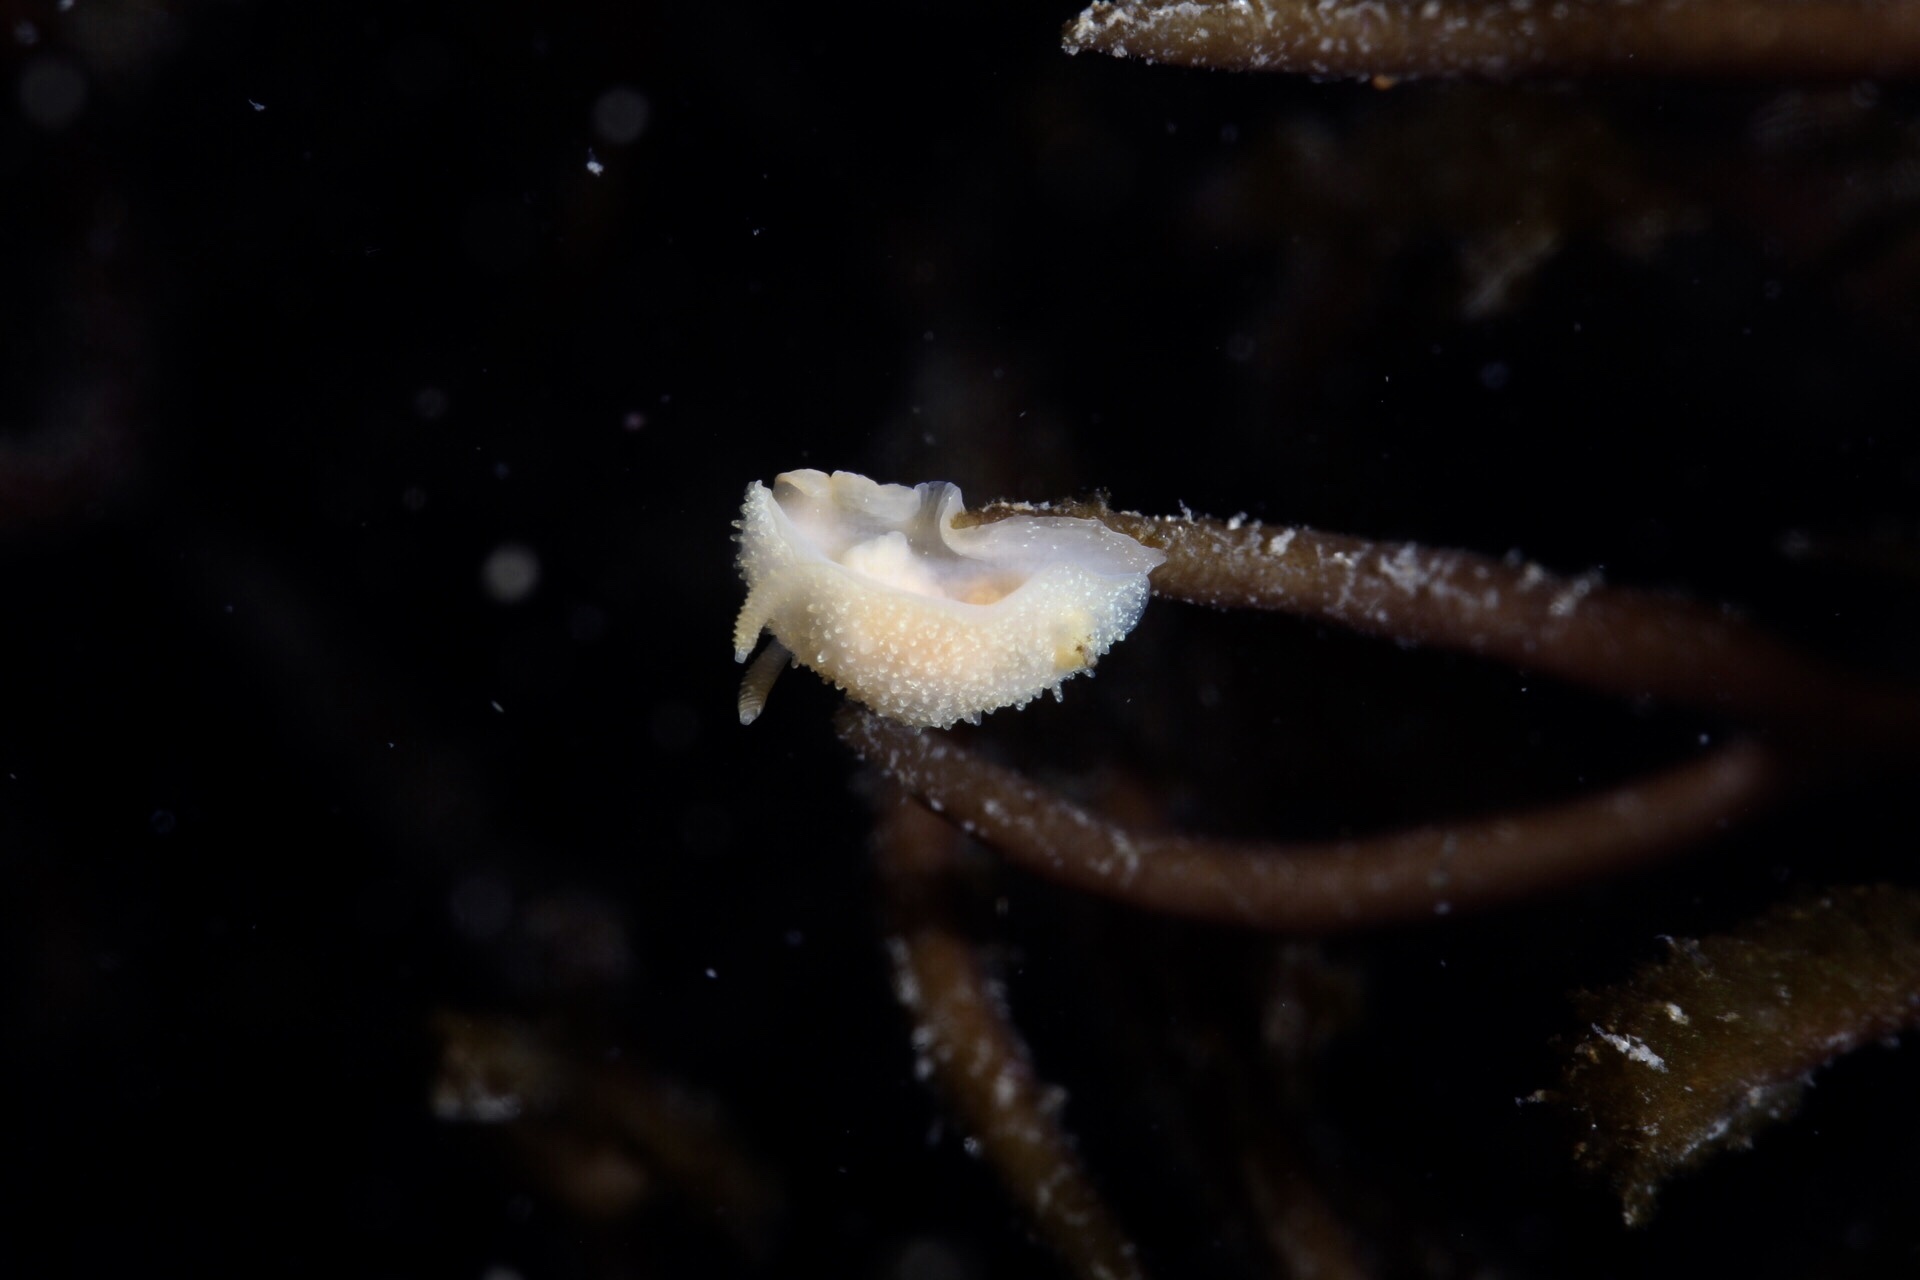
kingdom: Animalia
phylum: Mollusca
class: Gastropoda
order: Nudibranchia
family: Onchidorididae
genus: Acanthodoris
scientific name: Acanthodoris pilosa
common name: Hairy spiny doris
